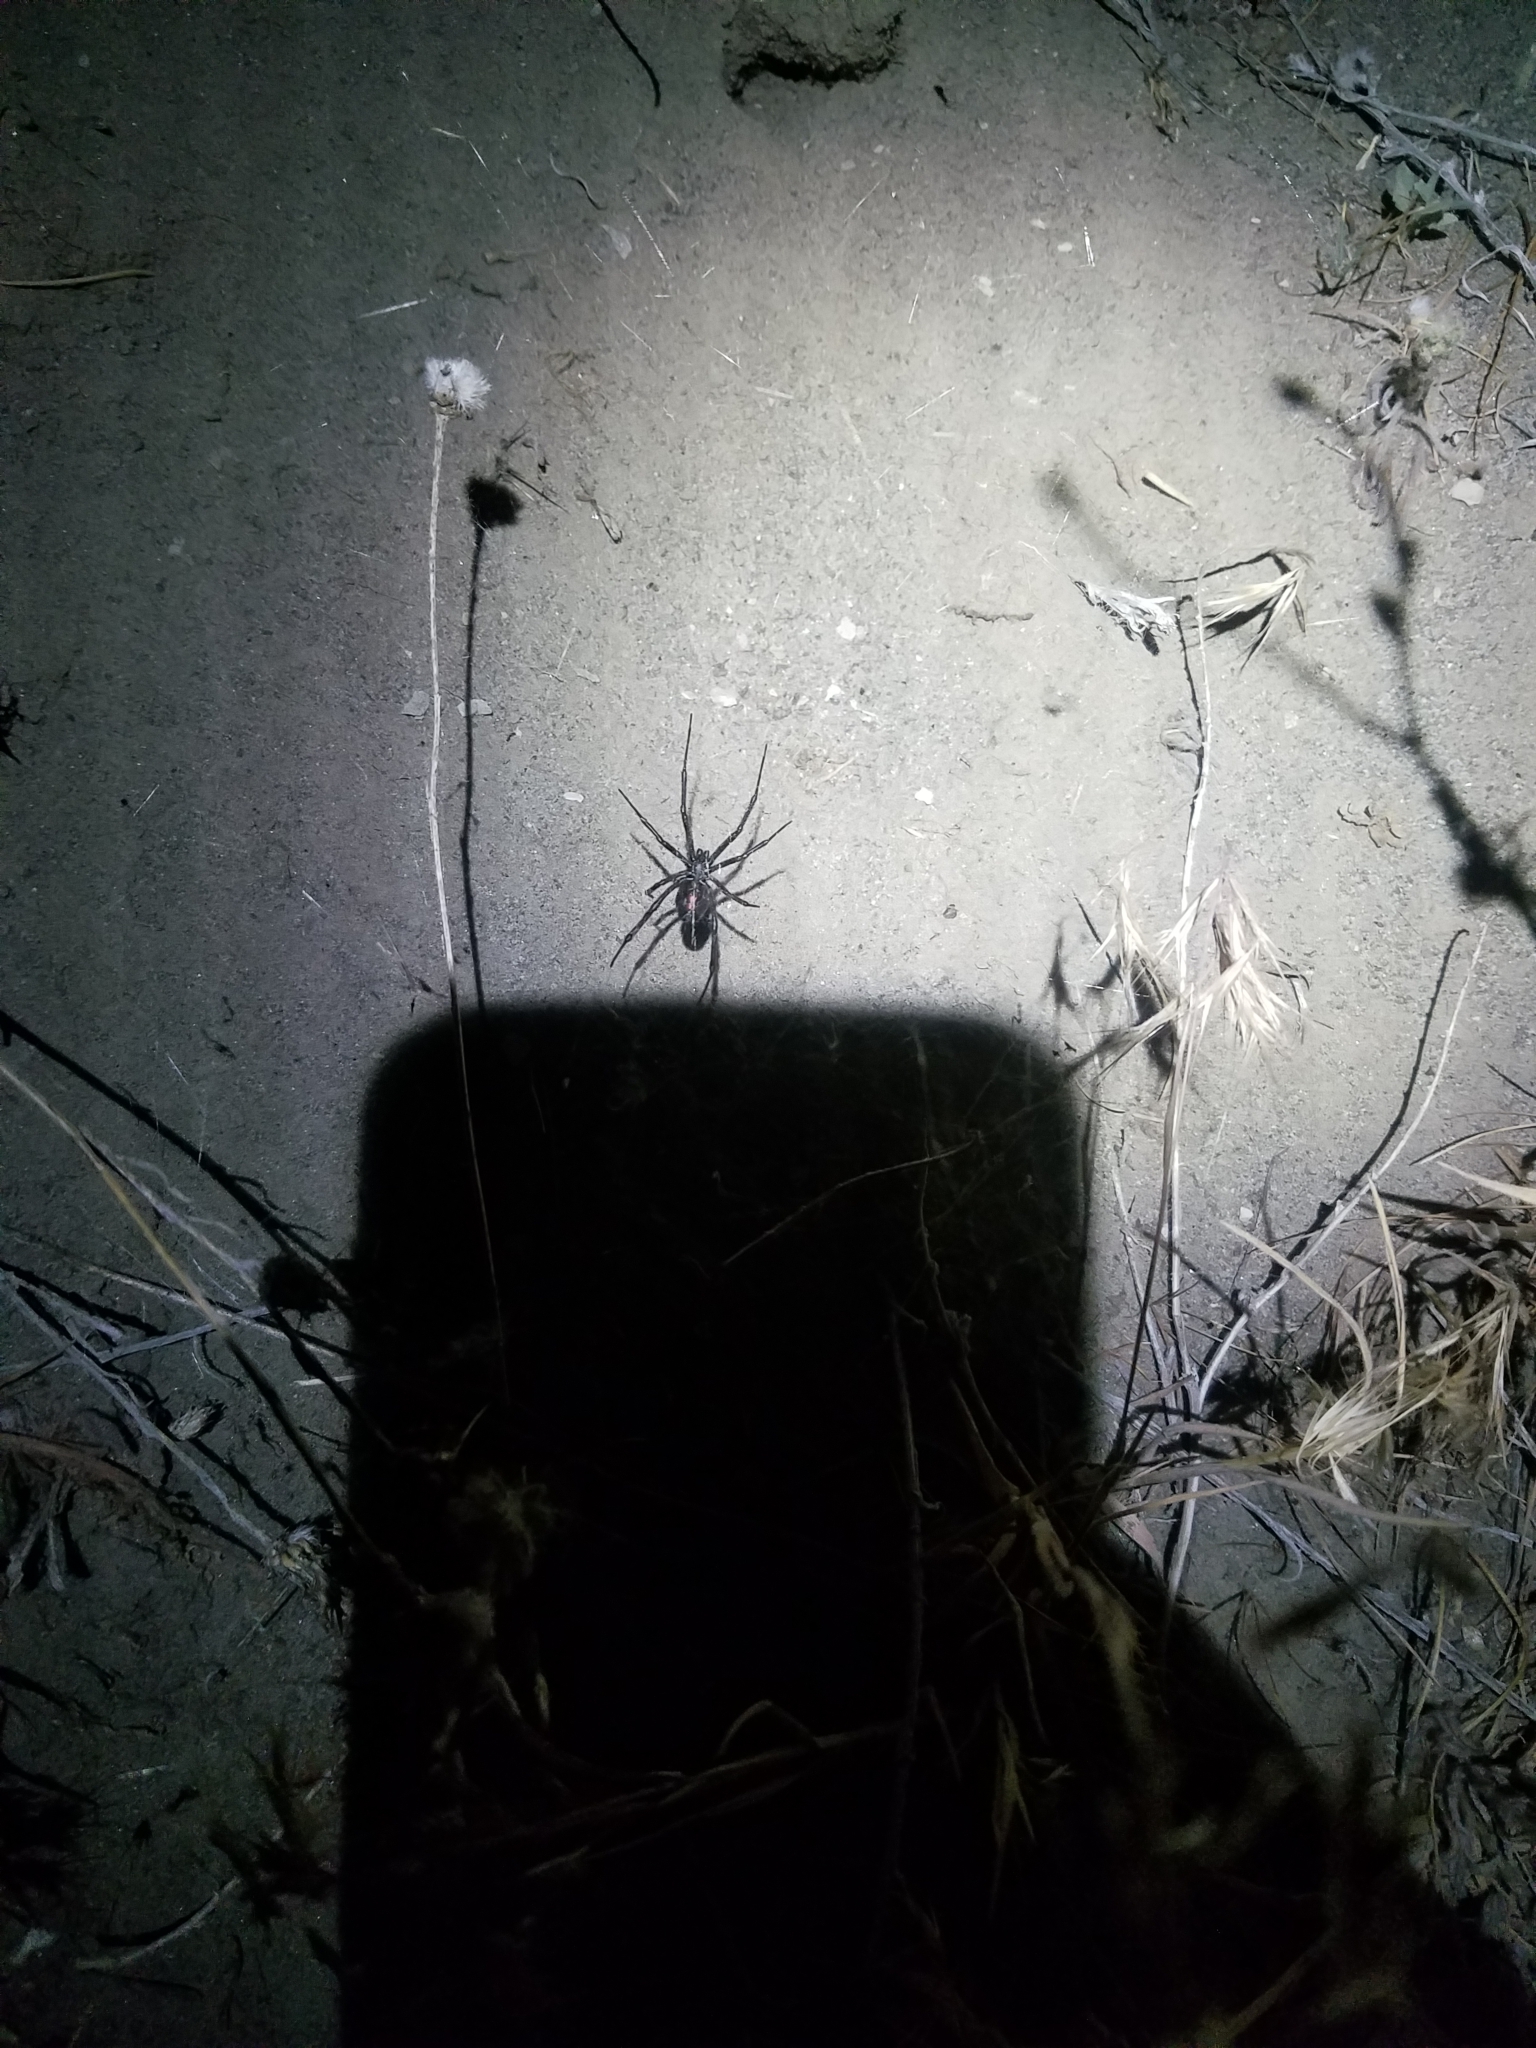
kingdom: Animalia
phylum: Arthropoda
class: Arachnida
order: Araneae
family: Theridiidae
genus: Latrodectus
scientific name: Latrodectus hesperus
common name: Western black widow
